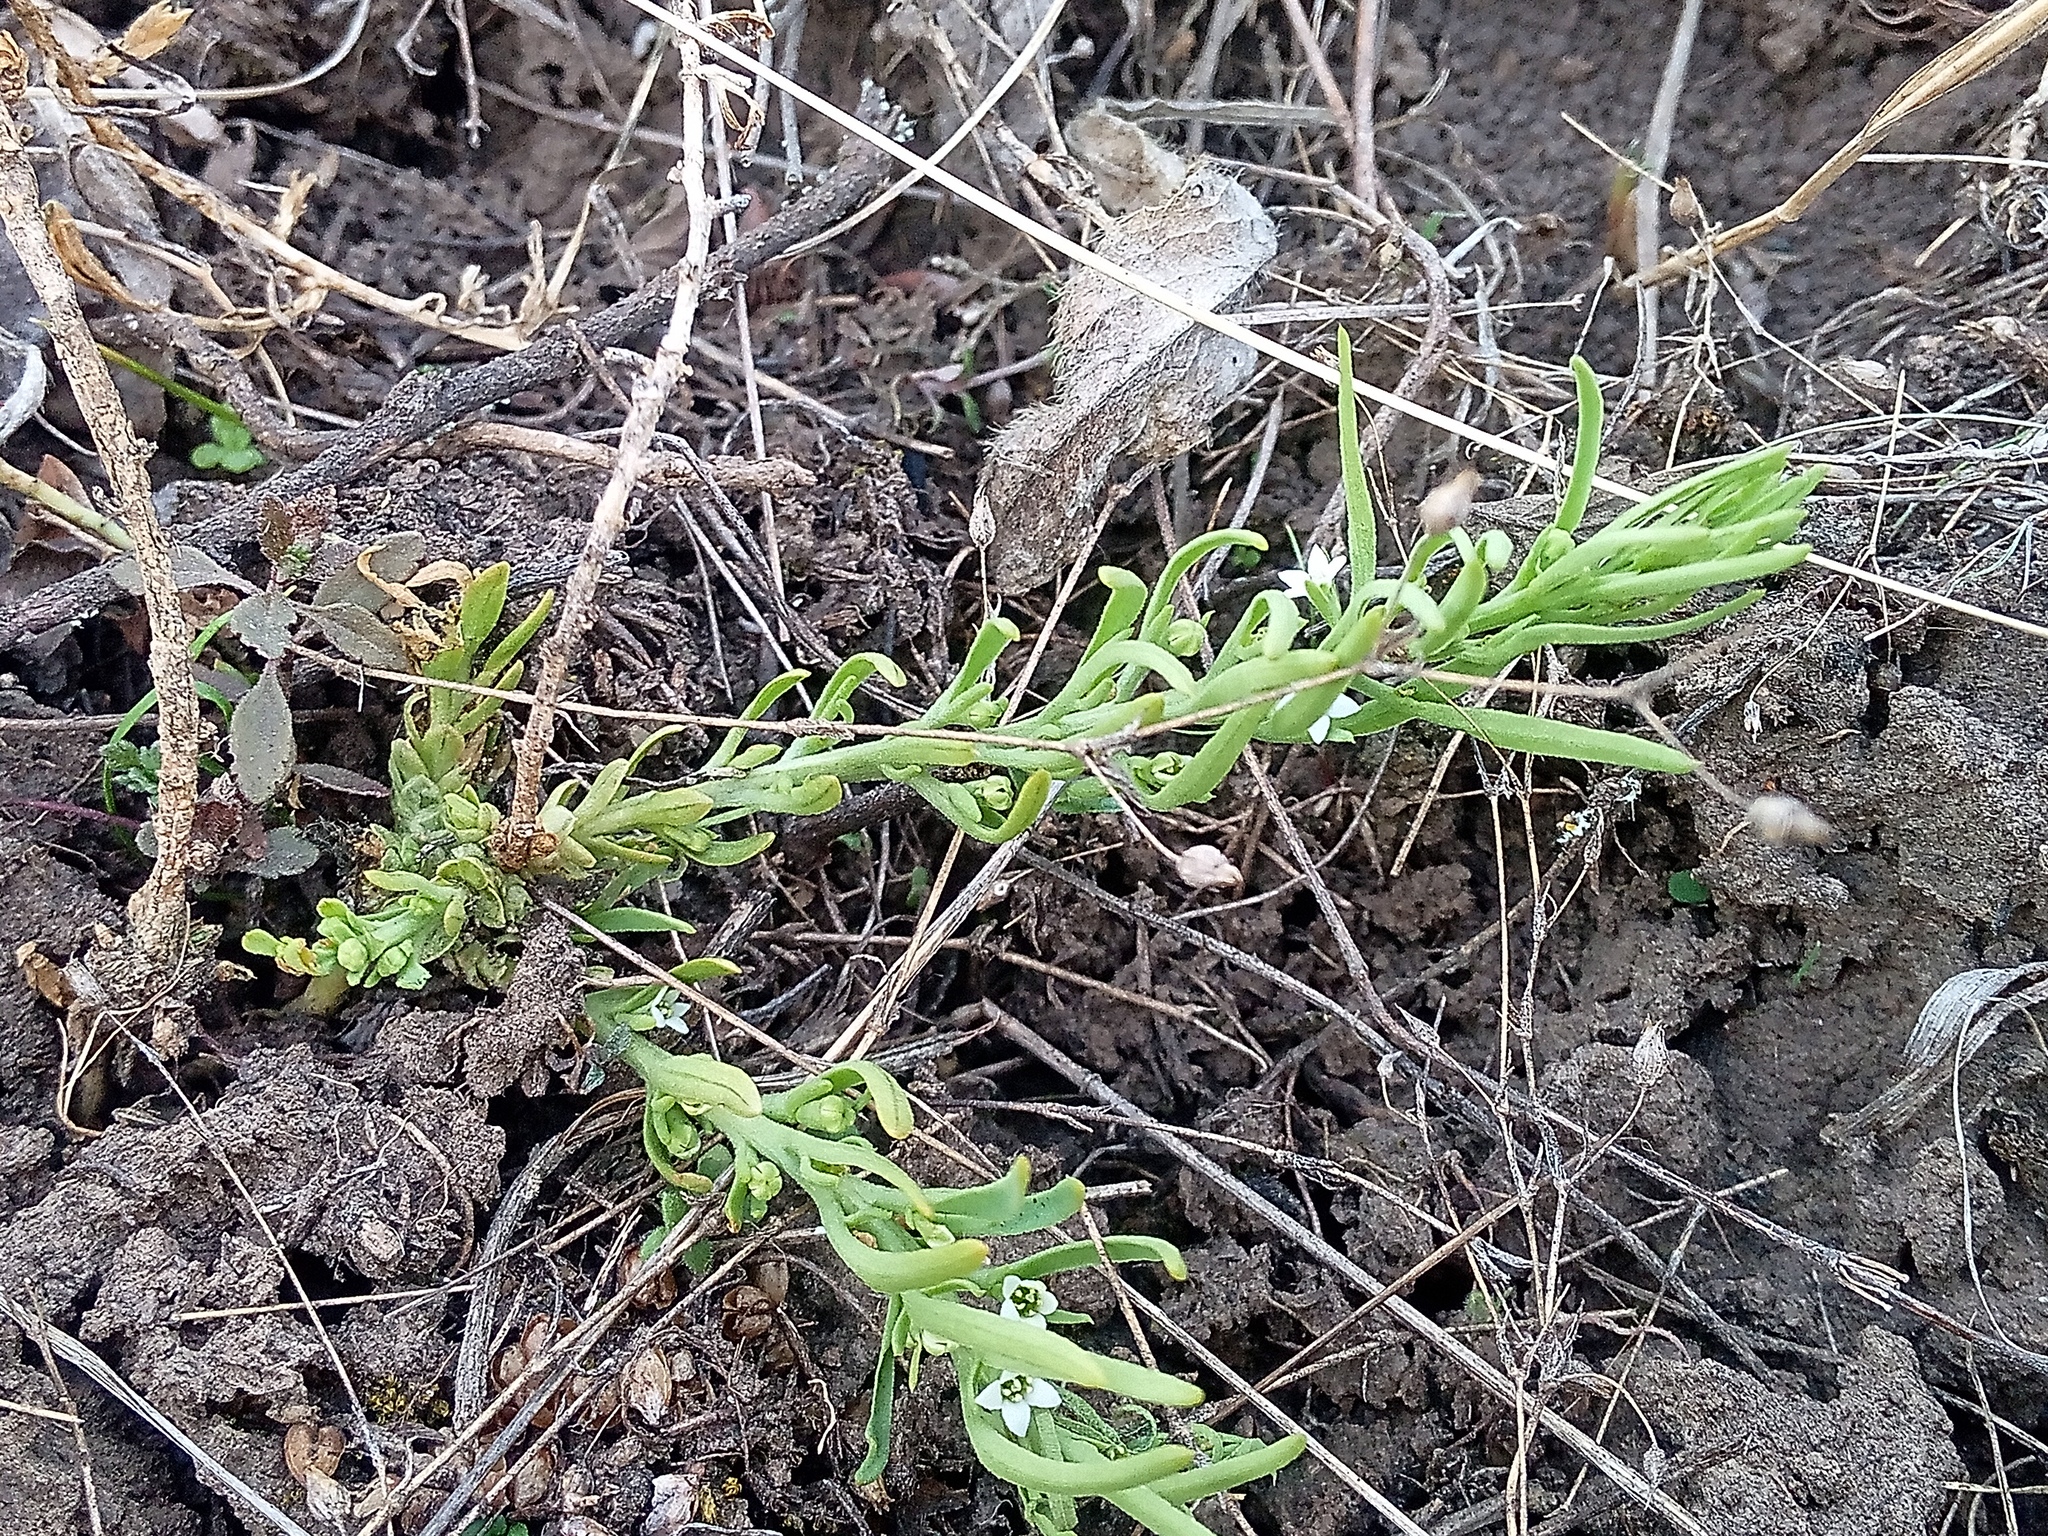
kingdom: Plantae
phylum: Tracheophyta
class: Magnoliopsida
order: Santalales
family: Thesiaceae
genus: Thesium
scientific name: Thesium ramosum
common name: Field thesium
